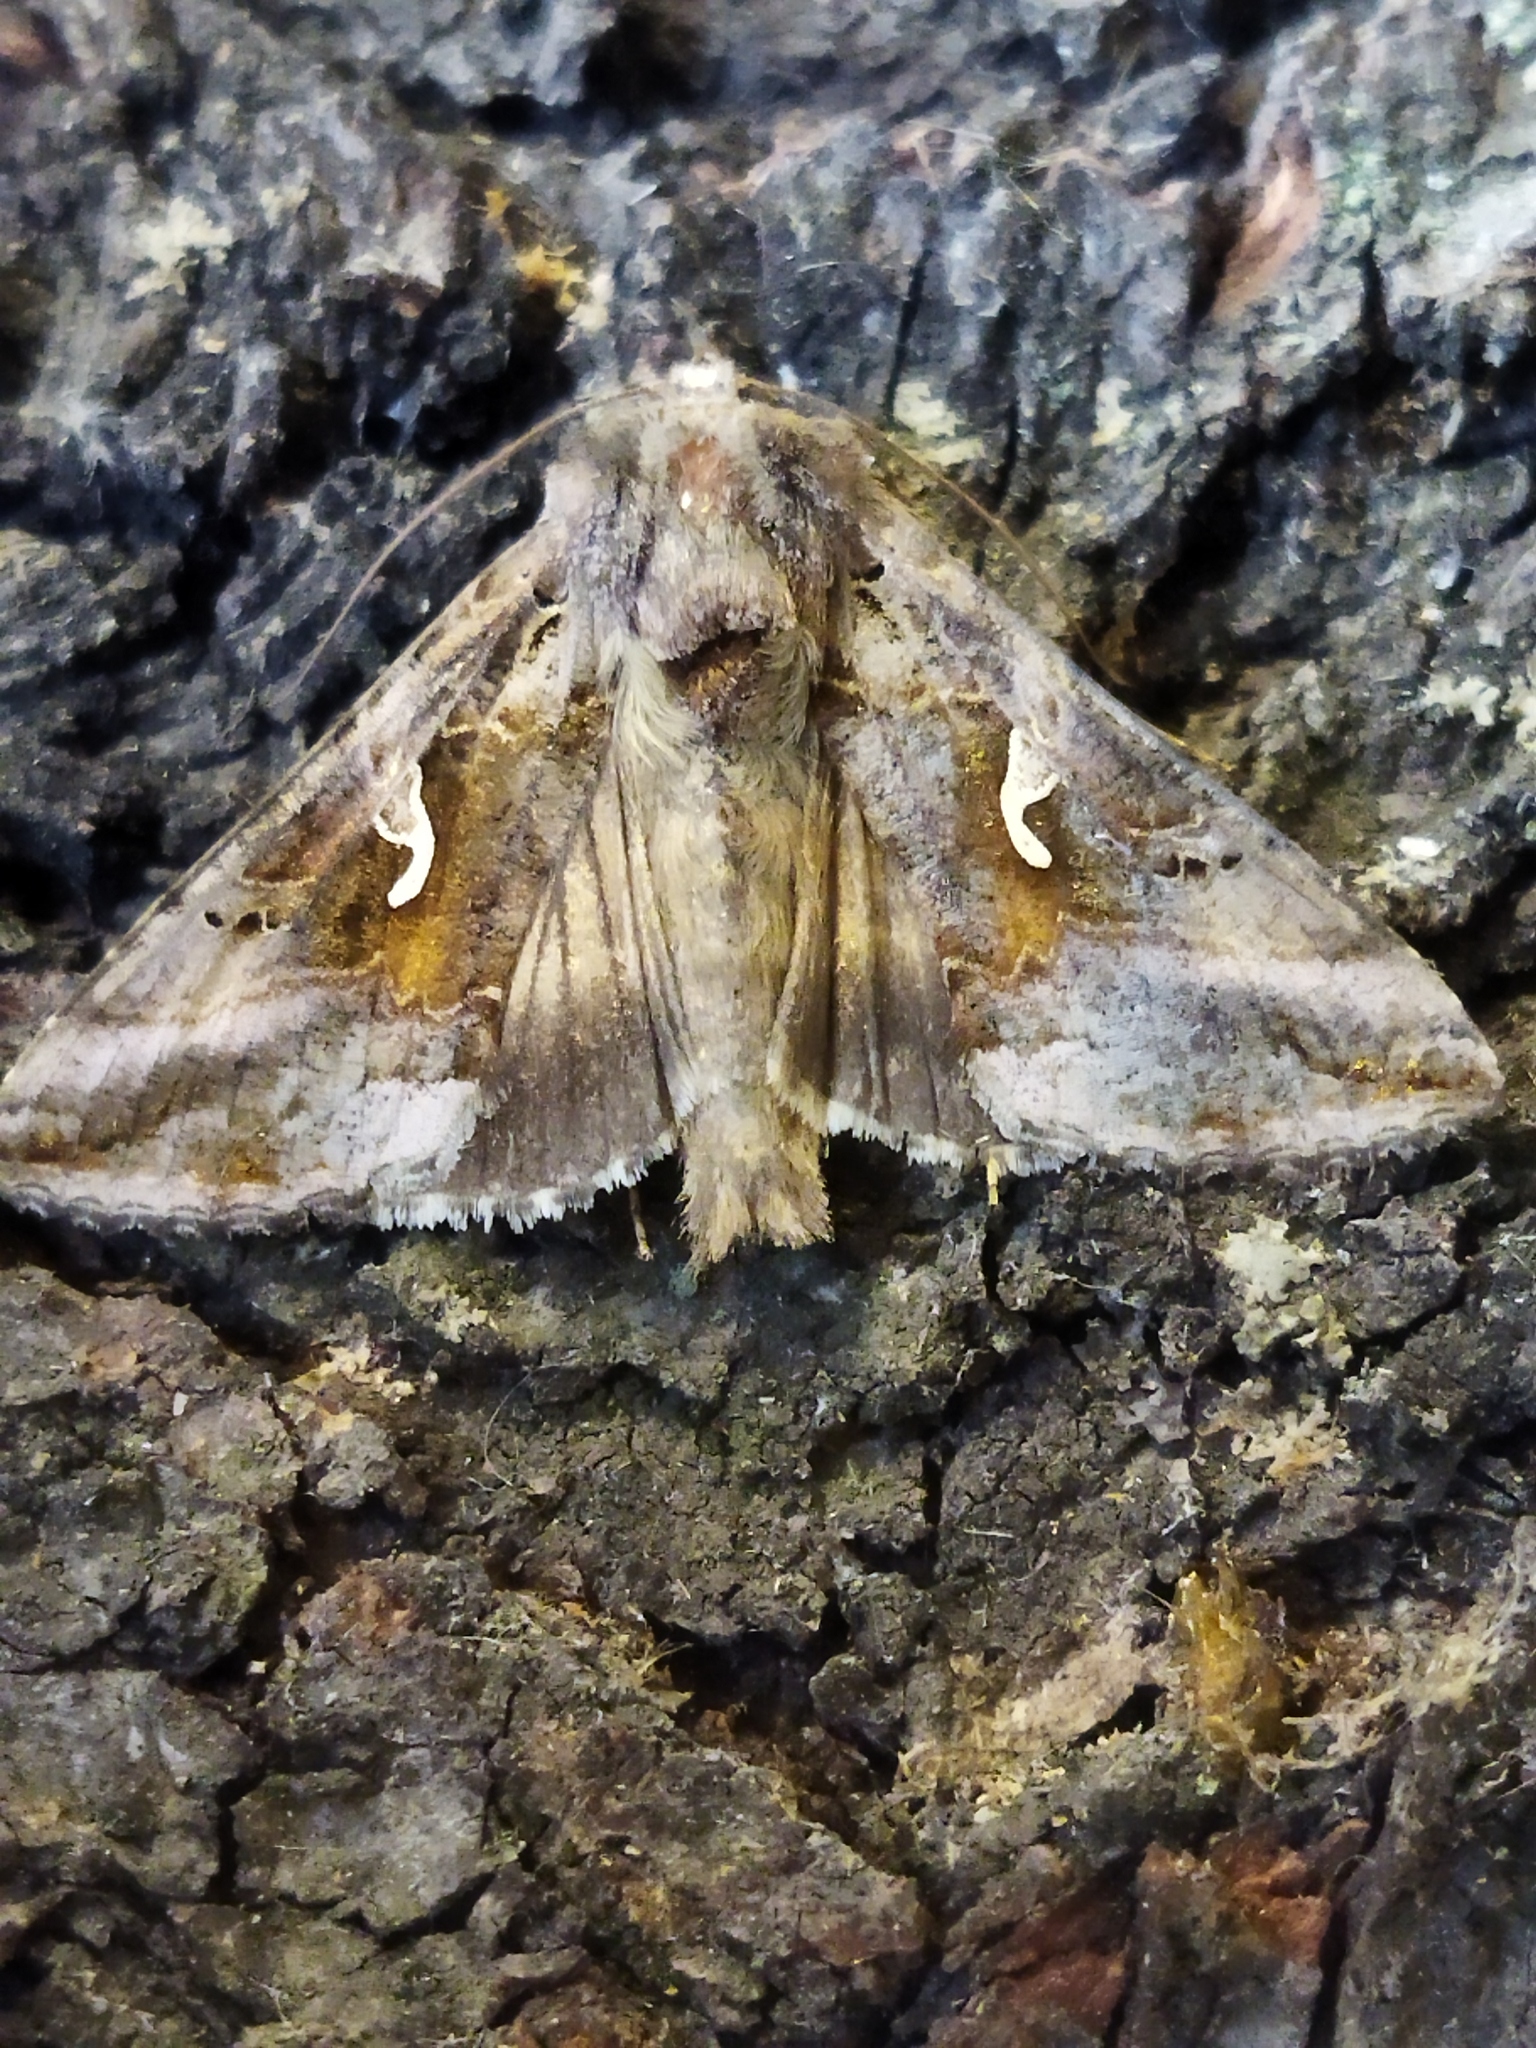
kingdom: Animalia
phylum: Arthropoda
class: Insecta
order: Lepidoptera
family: Noctuidae
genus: Autographa
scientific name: Autographa gamma
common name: Silver y
